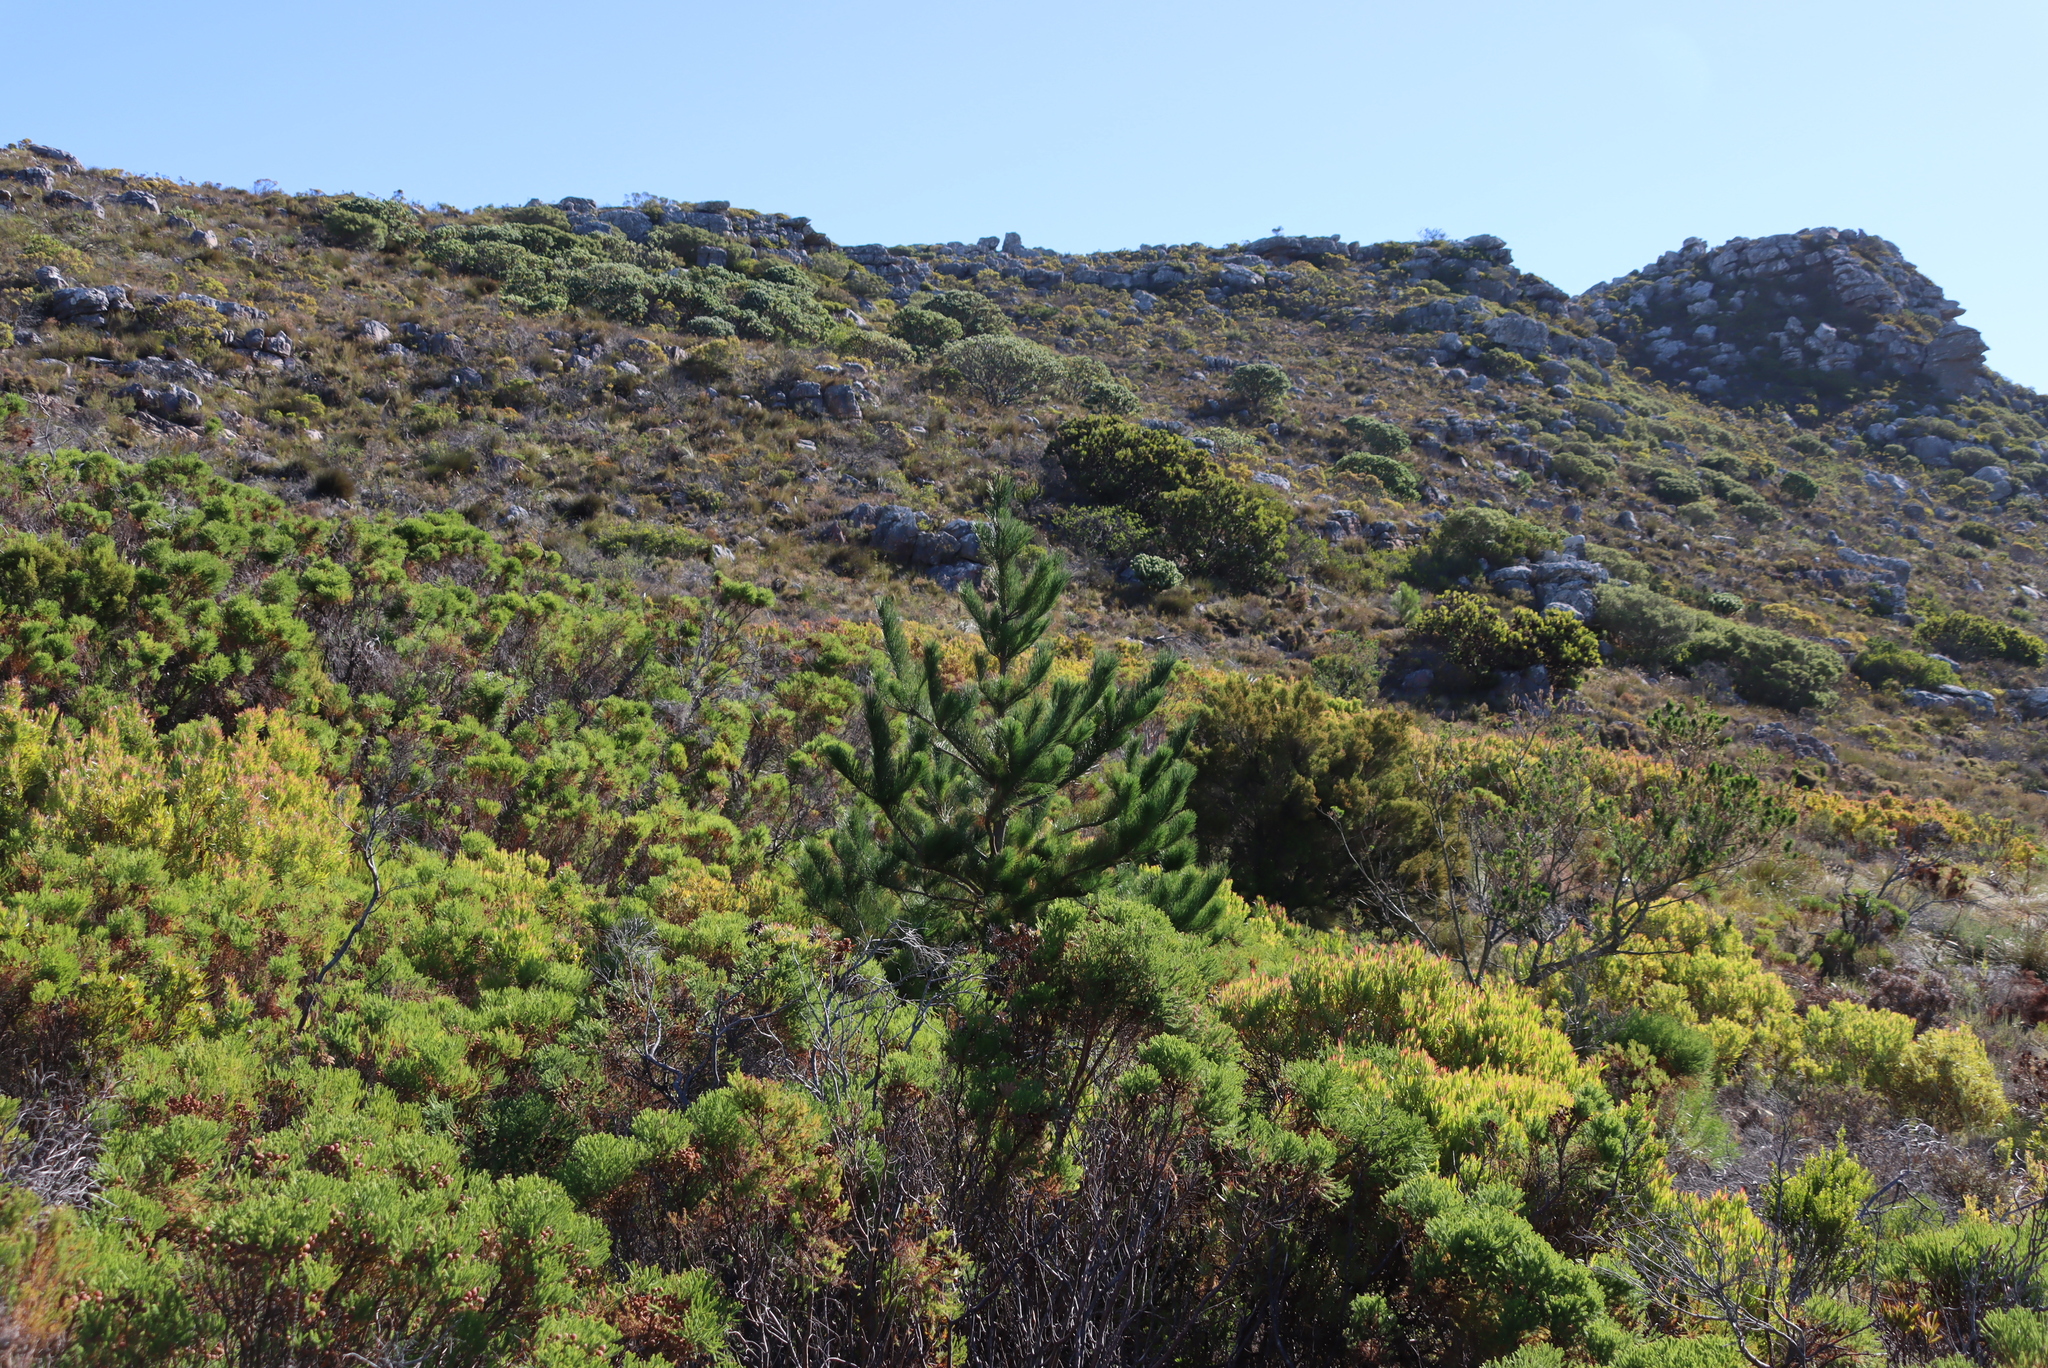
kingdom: Plantae
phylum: Tracheophyta
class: Pinopsida
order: Pinales
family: Pinaceae
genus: Pinus
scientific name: Pinus radiata
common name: Monterey pine
